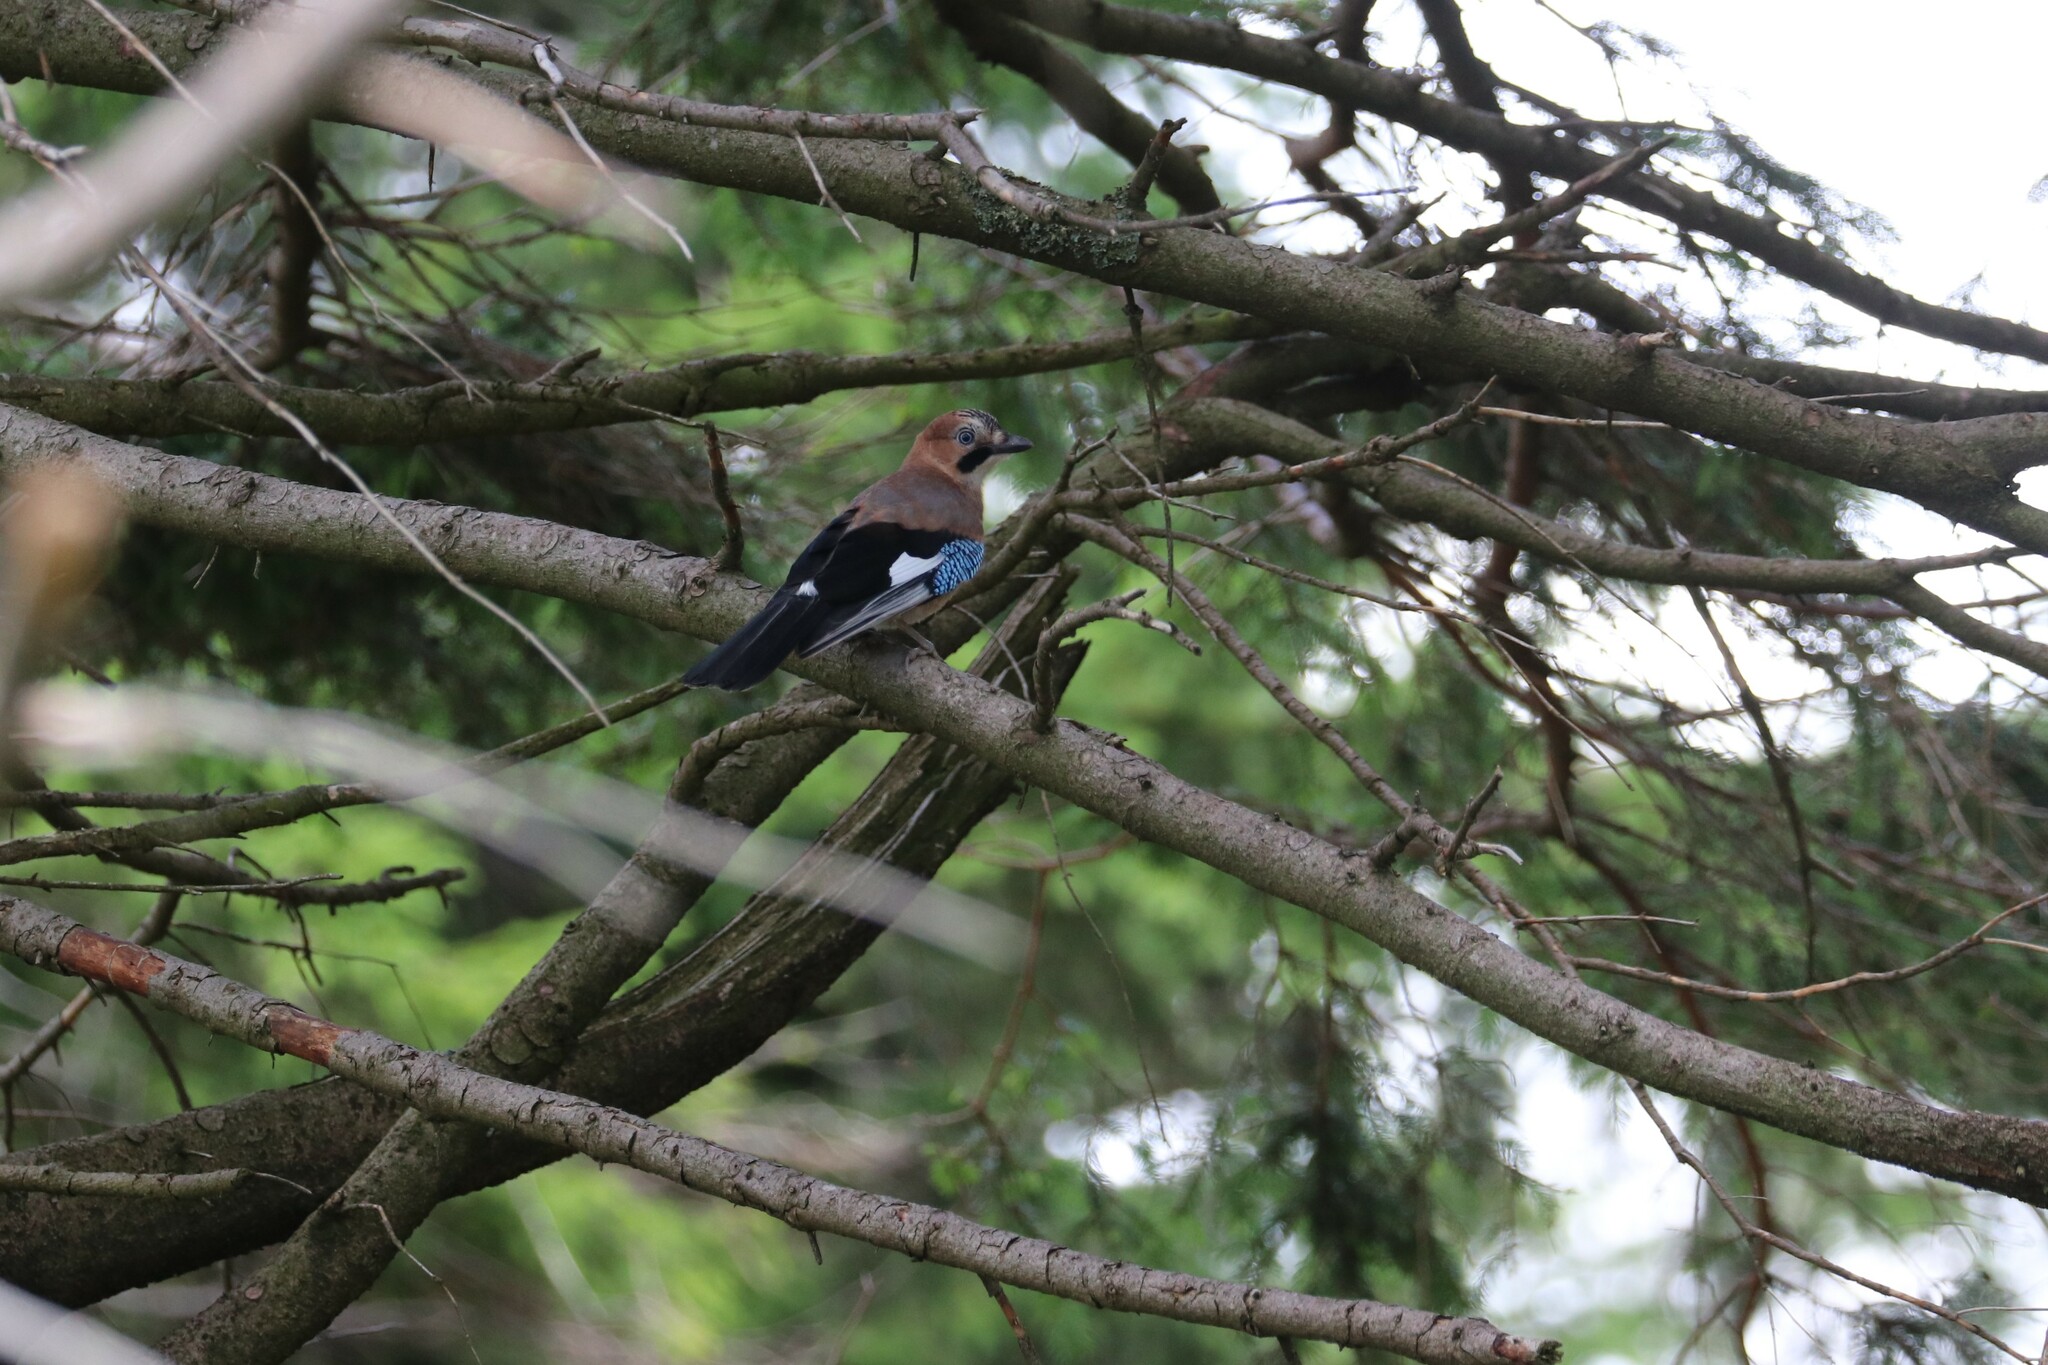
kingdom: Animalia
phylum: Chordata
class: Aves
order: Passeriformes
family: Corvidae
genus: Garrulus
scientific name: Garrulus glandarius
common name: Eurasian jay
